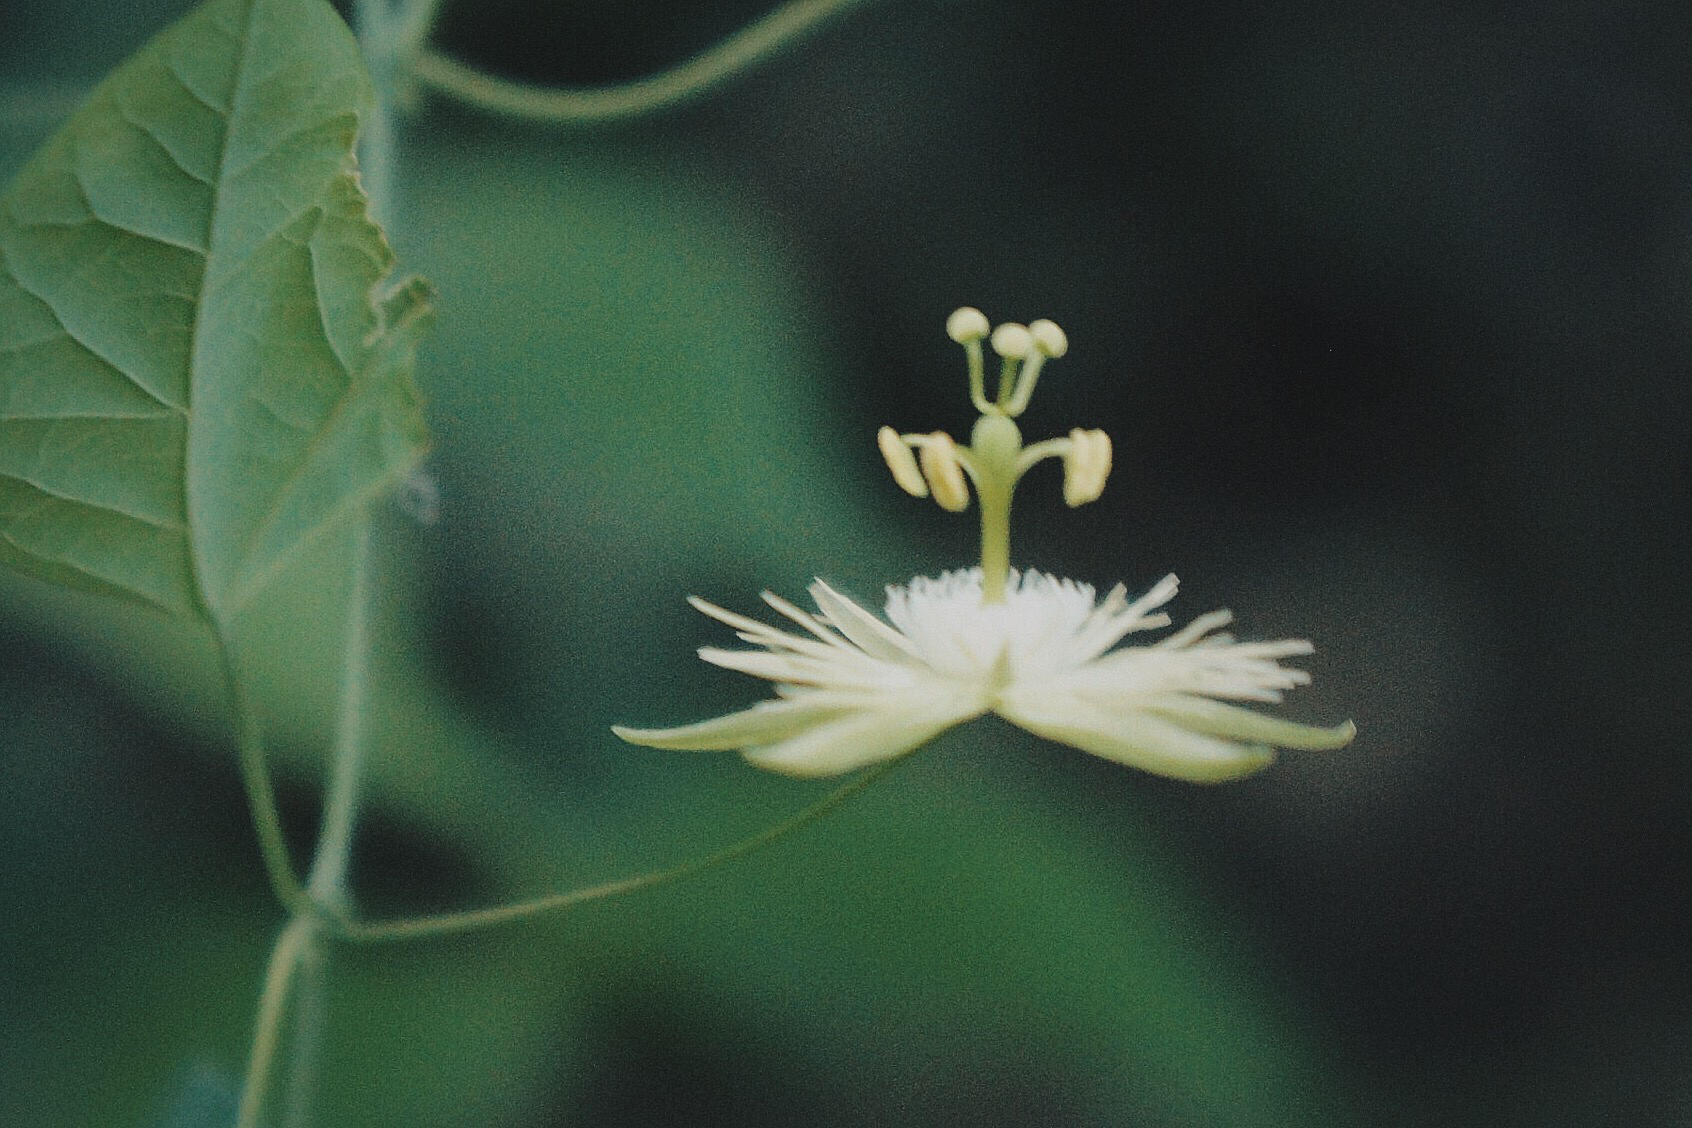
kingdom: Plantae
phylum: Tracheophyta
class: Magnoliopsida
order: Malpighiales
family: Passifloraceae
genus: Passiflora
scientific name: Passiflora filipes
